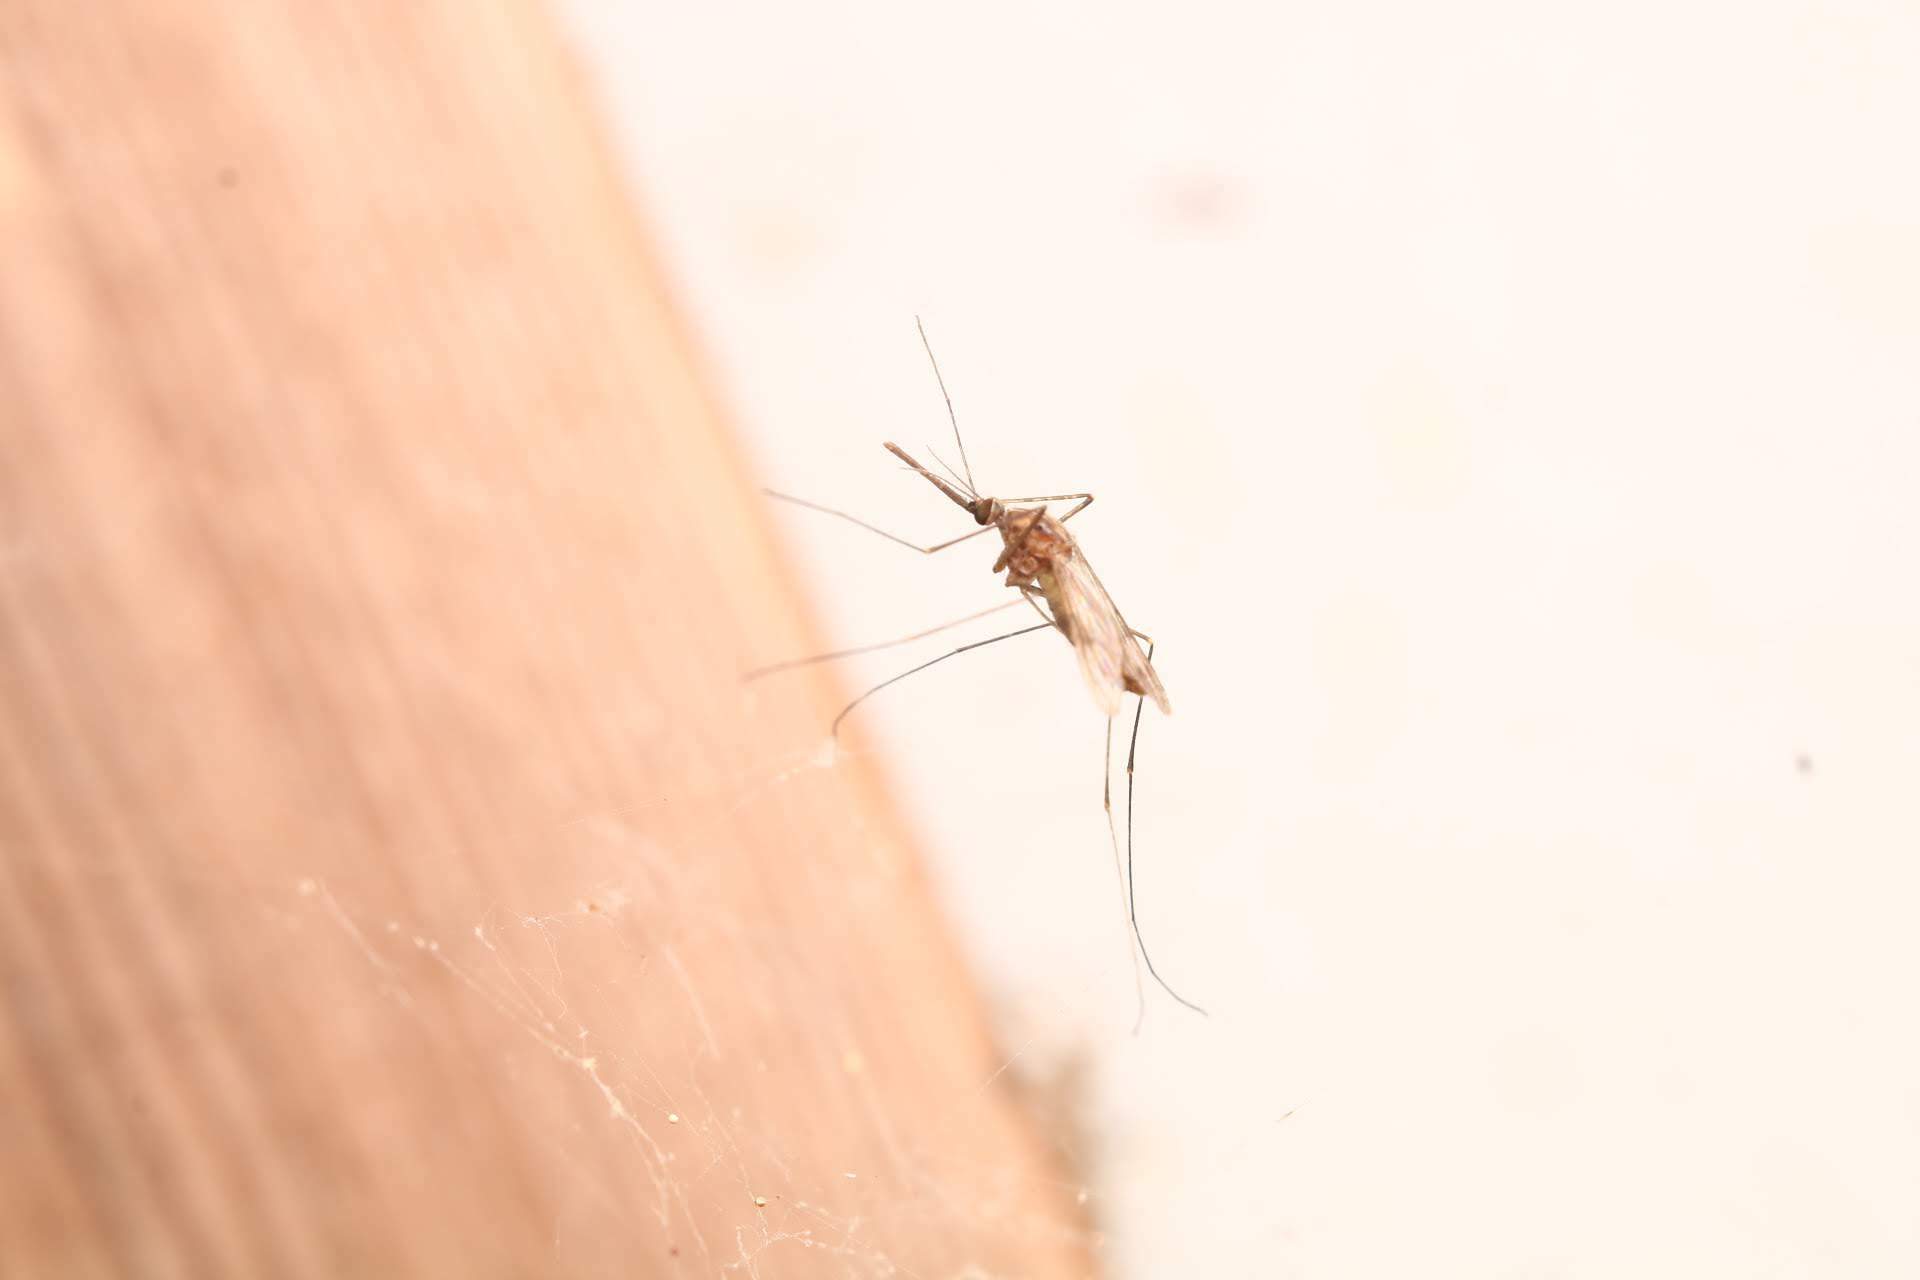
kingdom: Animalia
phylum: Arthropoda
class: Insecta
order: Diptera
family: Culicidae
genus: Anopheles
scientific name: Anopheles
